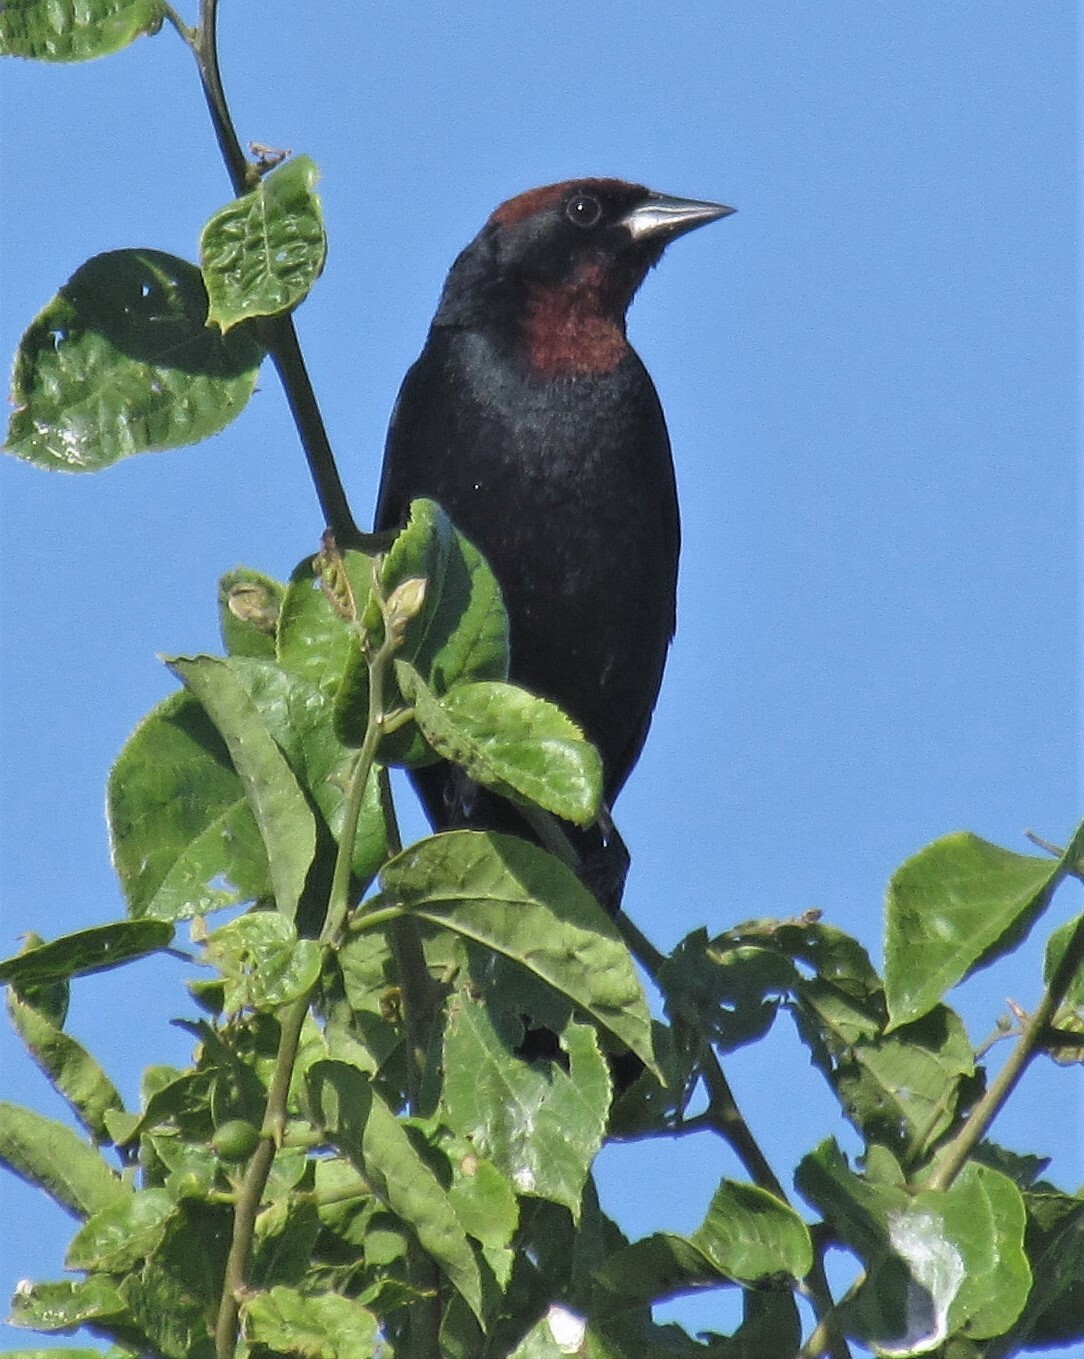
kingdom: Animalia
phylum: Chordata
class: Aves
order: Passeriformes
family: Icteridae
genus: Chrysomus
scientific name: Chrysomus ruficapillus
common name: Chestnut-capped blackbird
